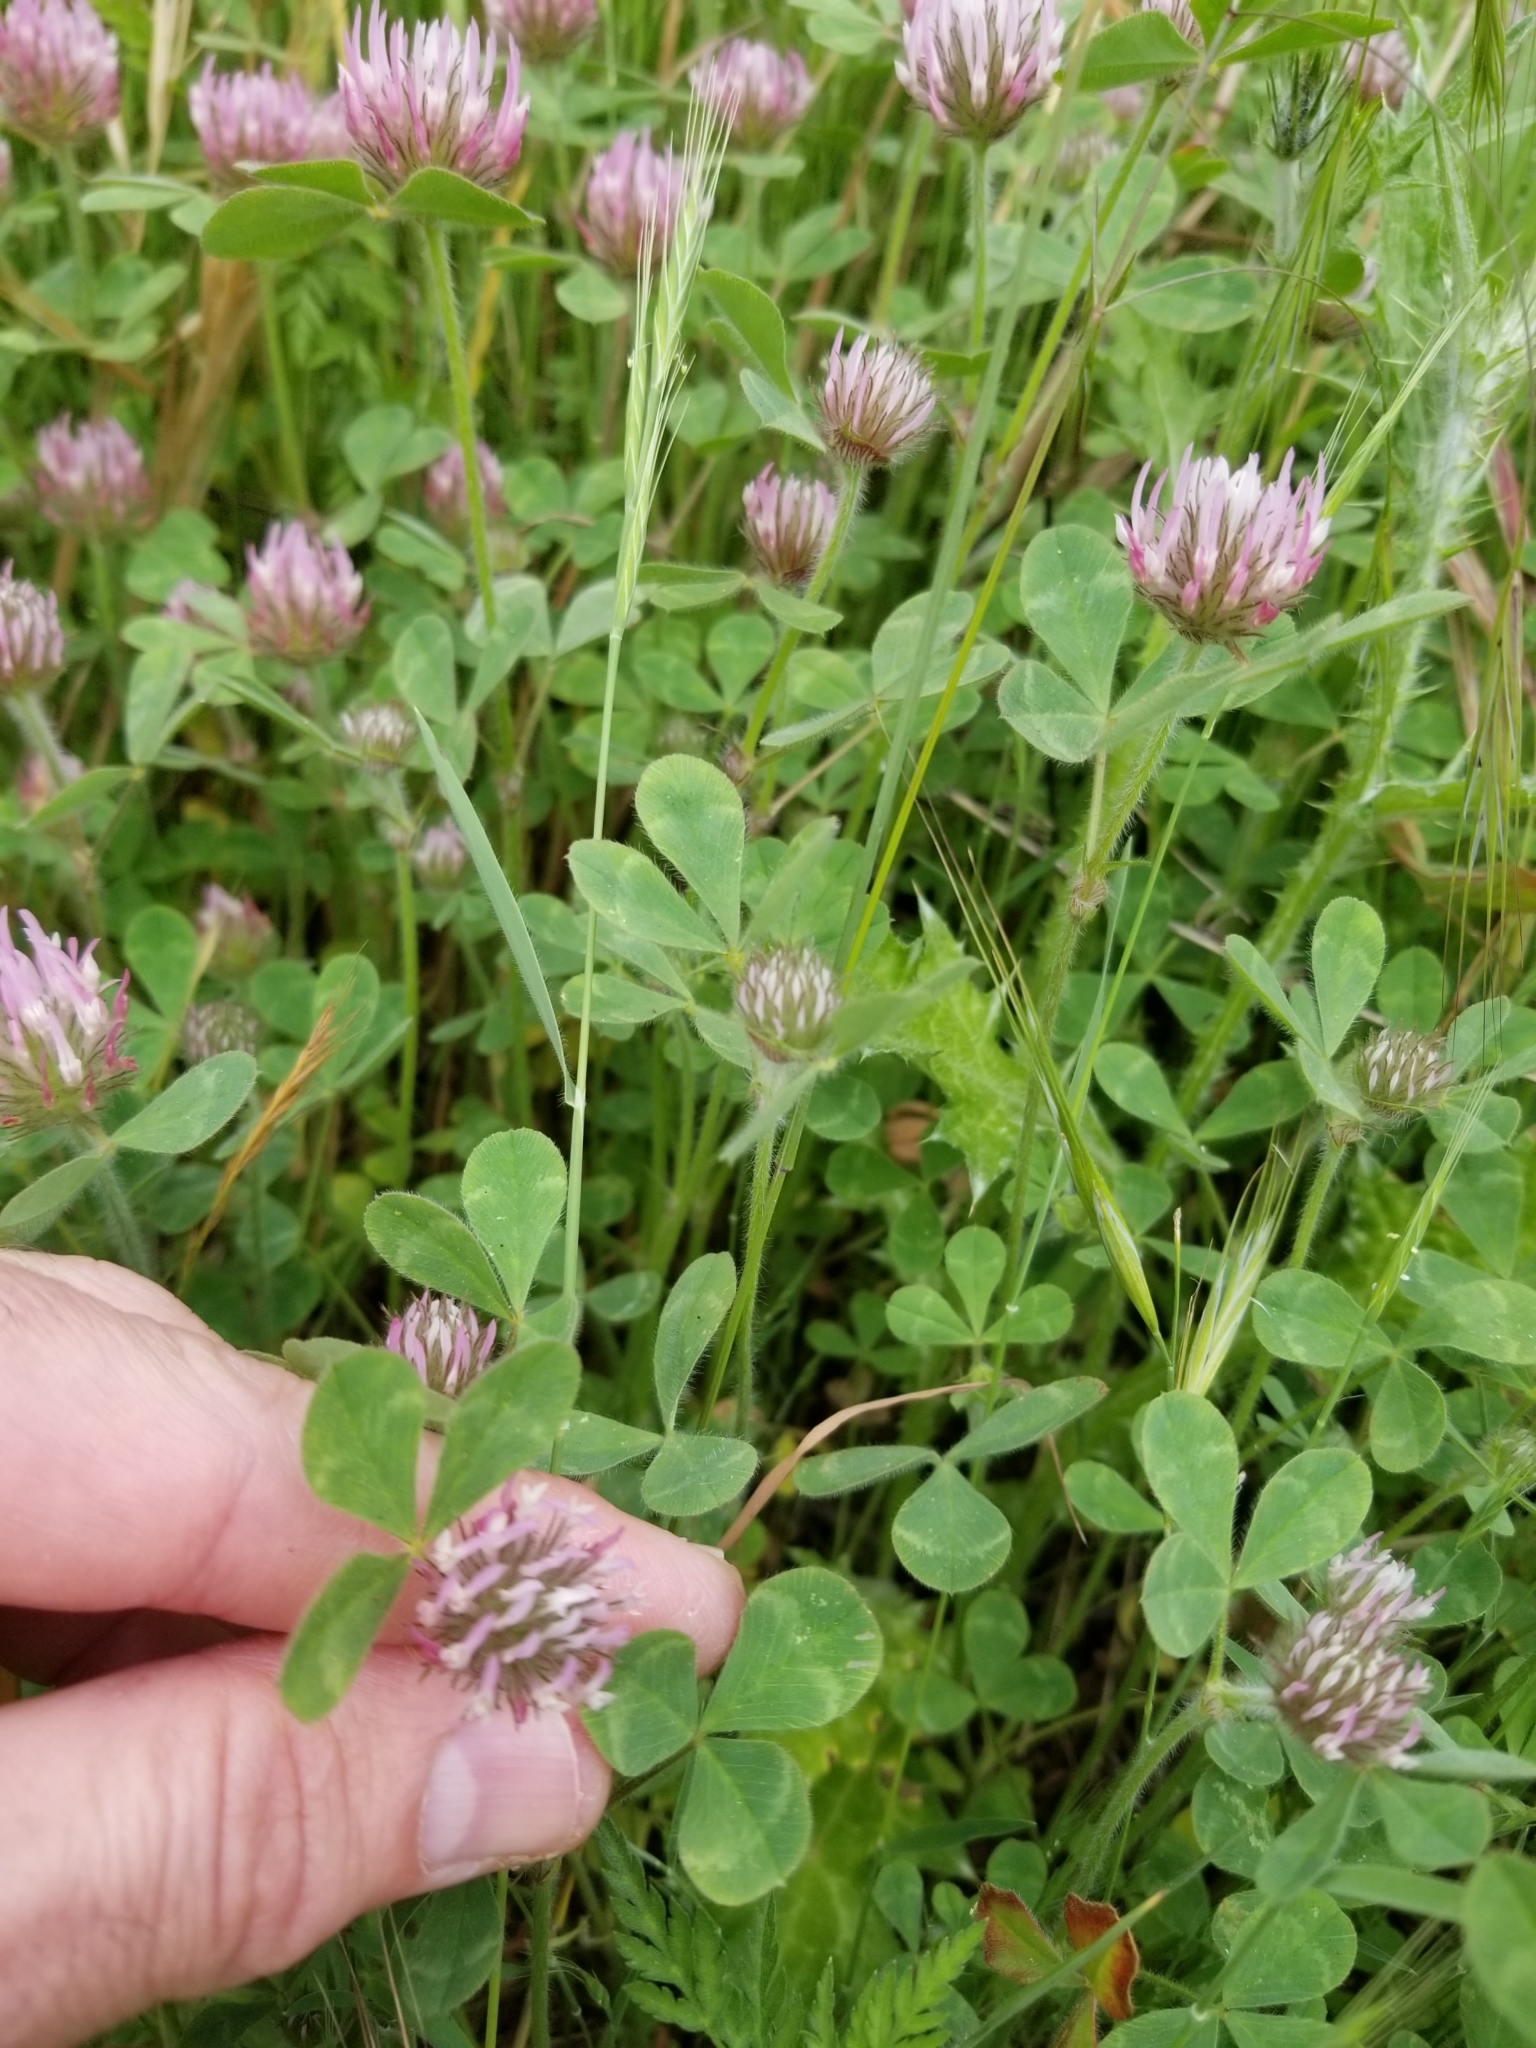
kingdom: Plantae
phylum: Tracheophyta
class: Magnoliopsida
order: Fabales
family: Fabaceae
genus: Trifolium
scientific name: Trifolium hirtum
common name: Rose clover
